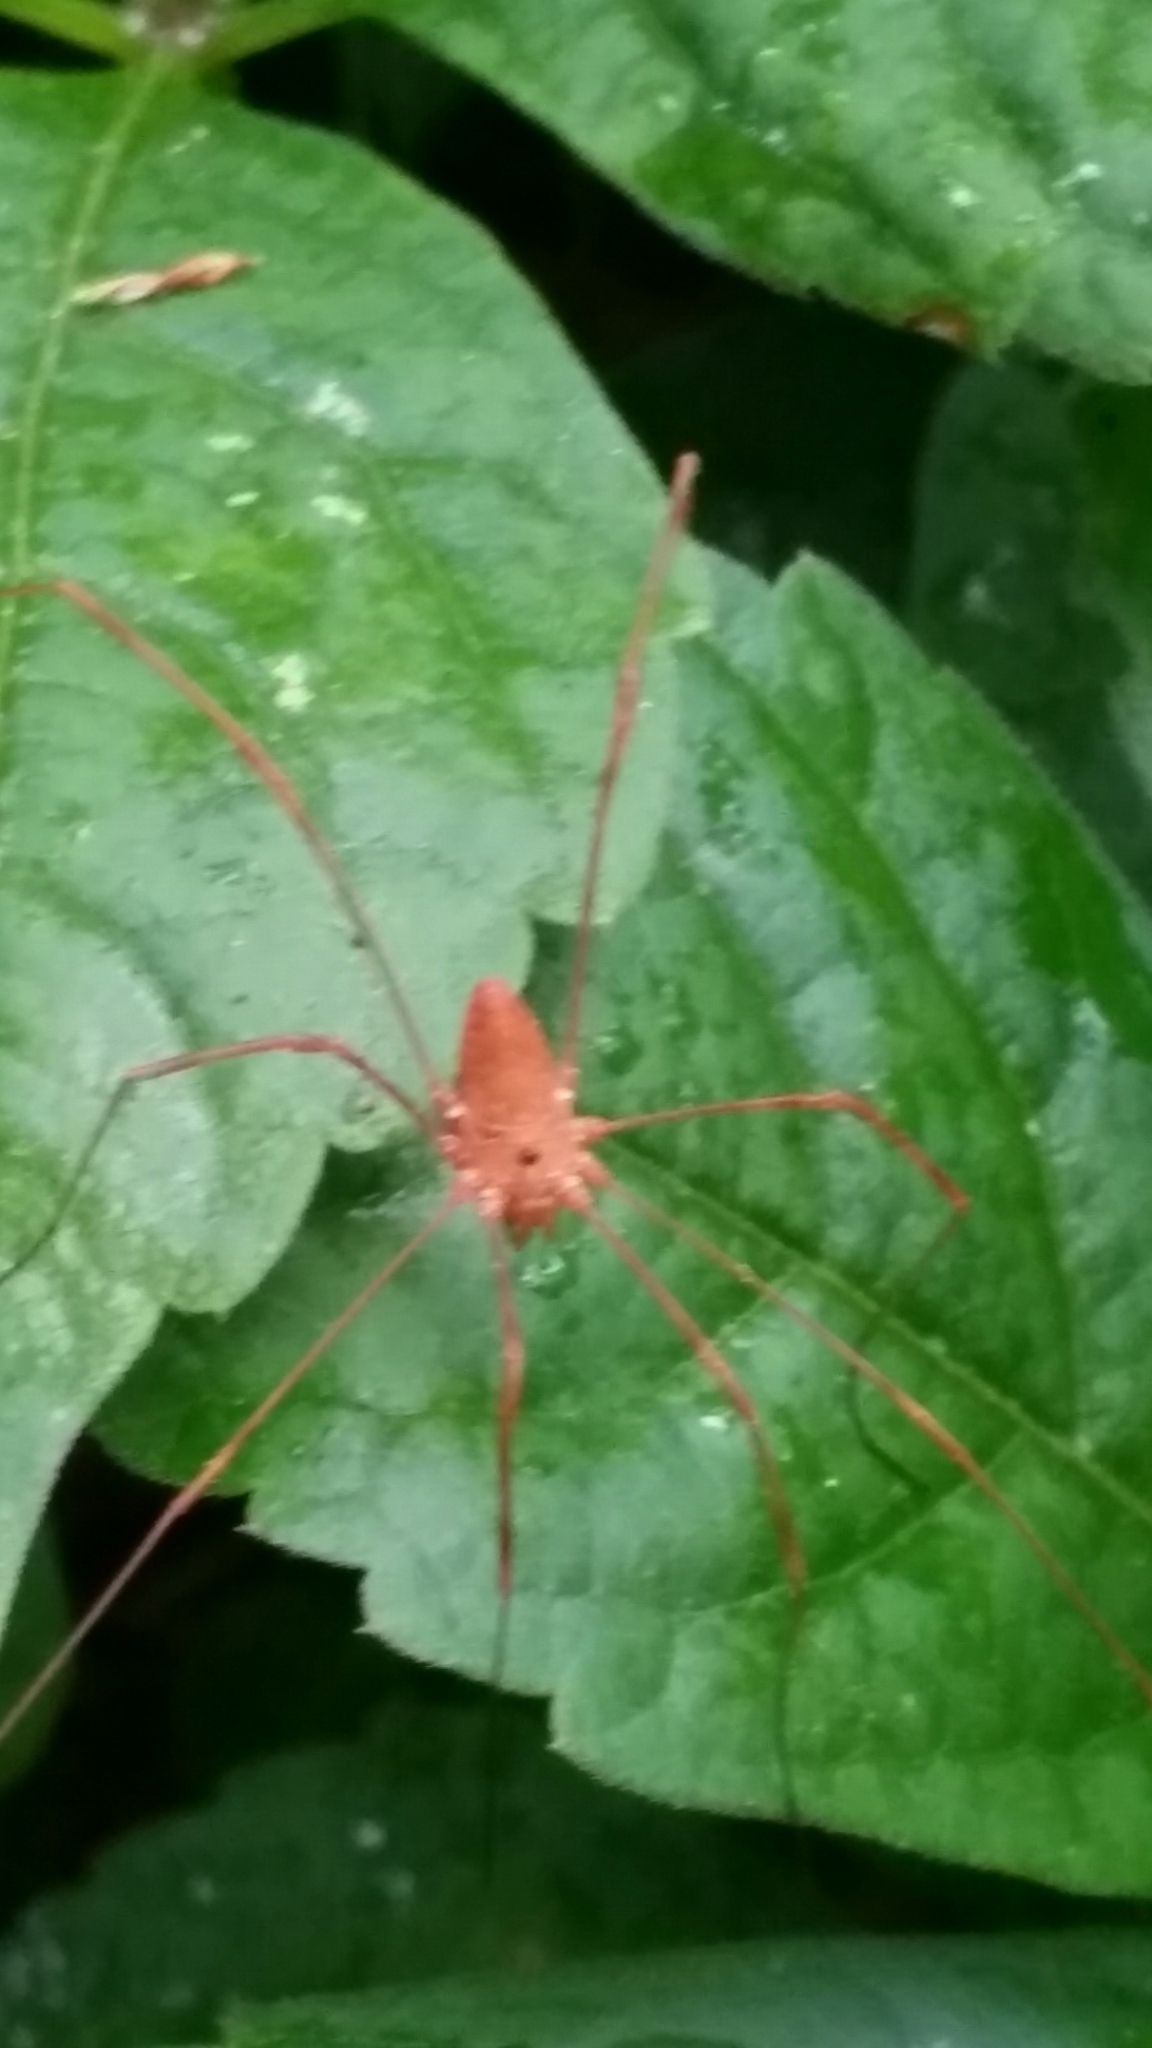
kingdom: Animalia
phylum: Arthropoda
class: Arachnida
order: Opiliones
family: Sclerosomatidae
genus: Leiobunum
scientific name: Leiobunum ventricosum
